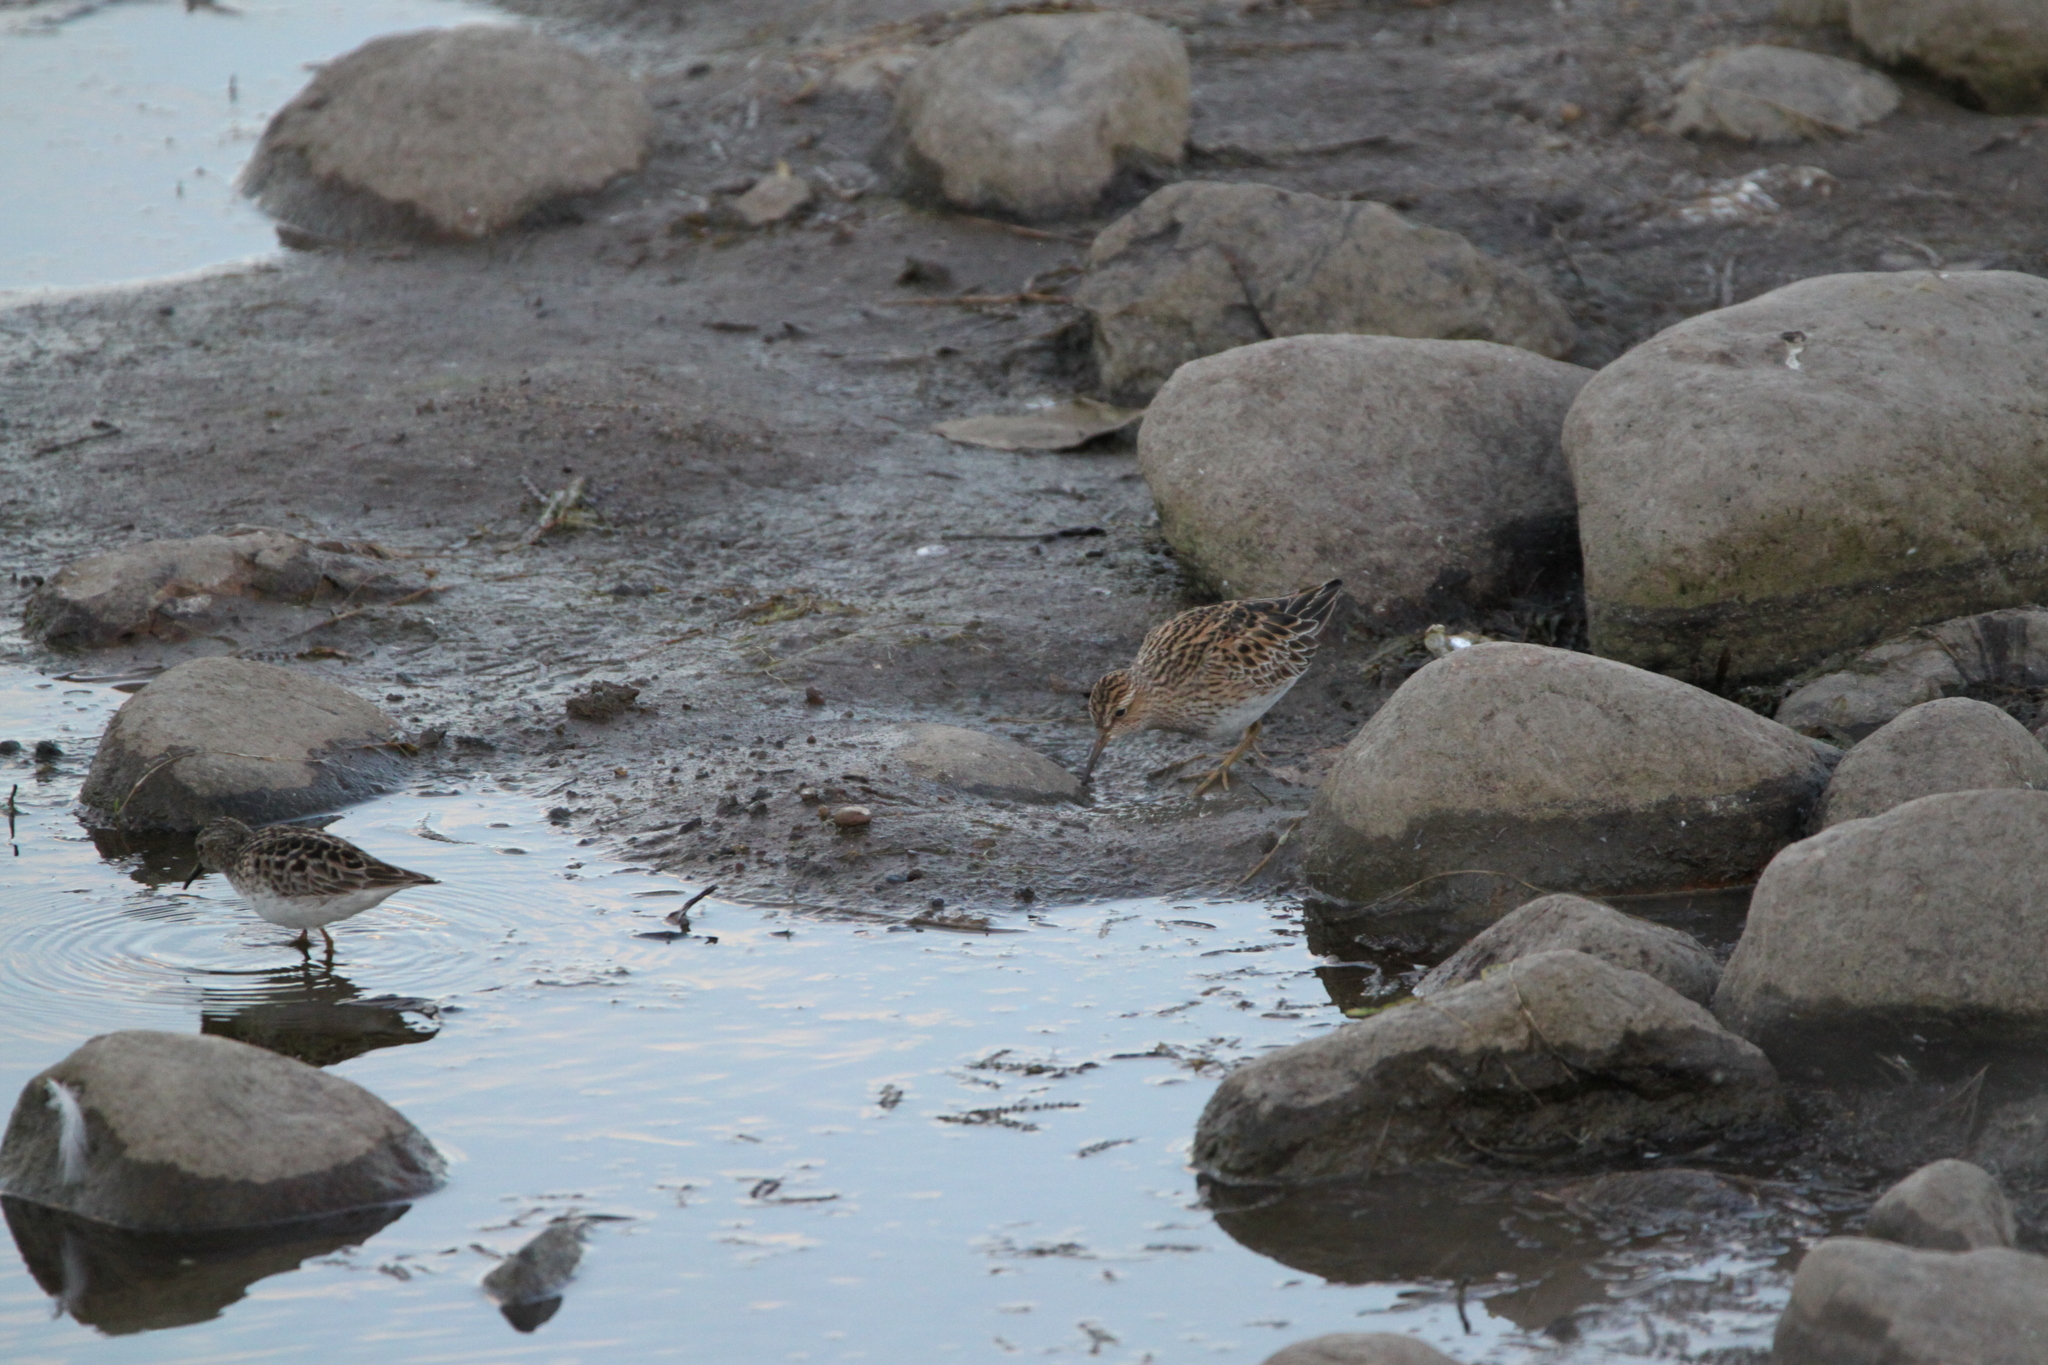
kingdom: Animalia
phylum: Chordata
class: Aves
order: Charadriiformes
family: Scolopacidae
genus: Calidris
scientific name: Calidris melanotos
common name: Pectoral sandpiper
